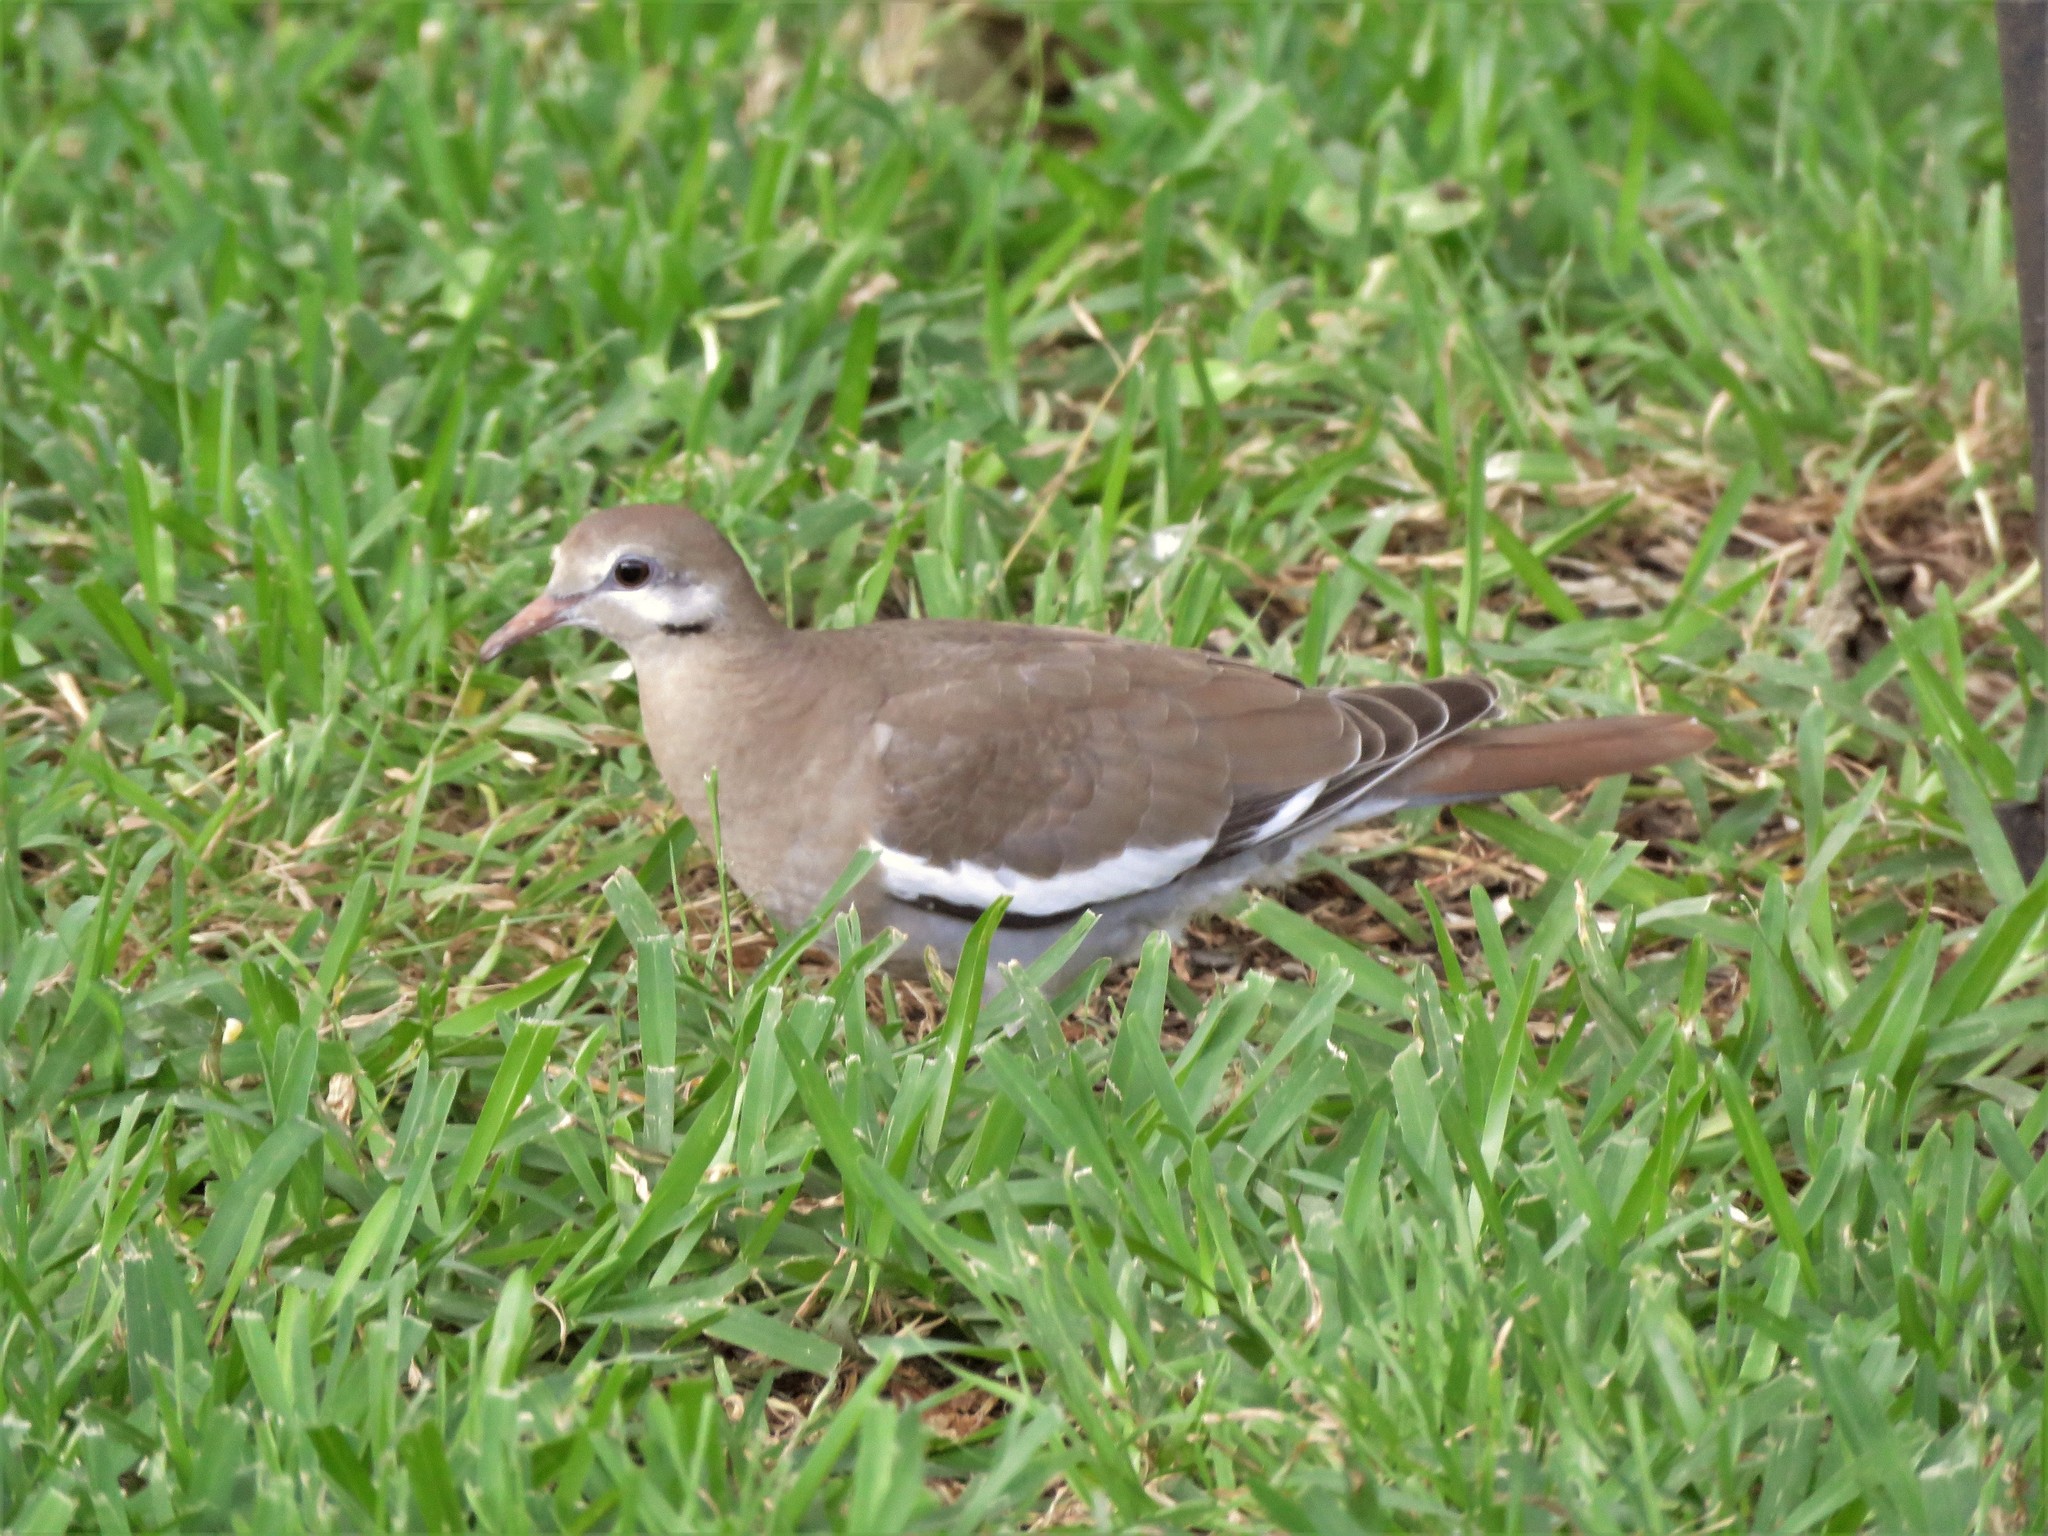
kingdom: Animalia
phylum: Chordata
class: Aves
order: Columbiformes
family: Columbidae
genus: Zenaida
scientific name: Zenaida asiatica
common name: White-winged dove
